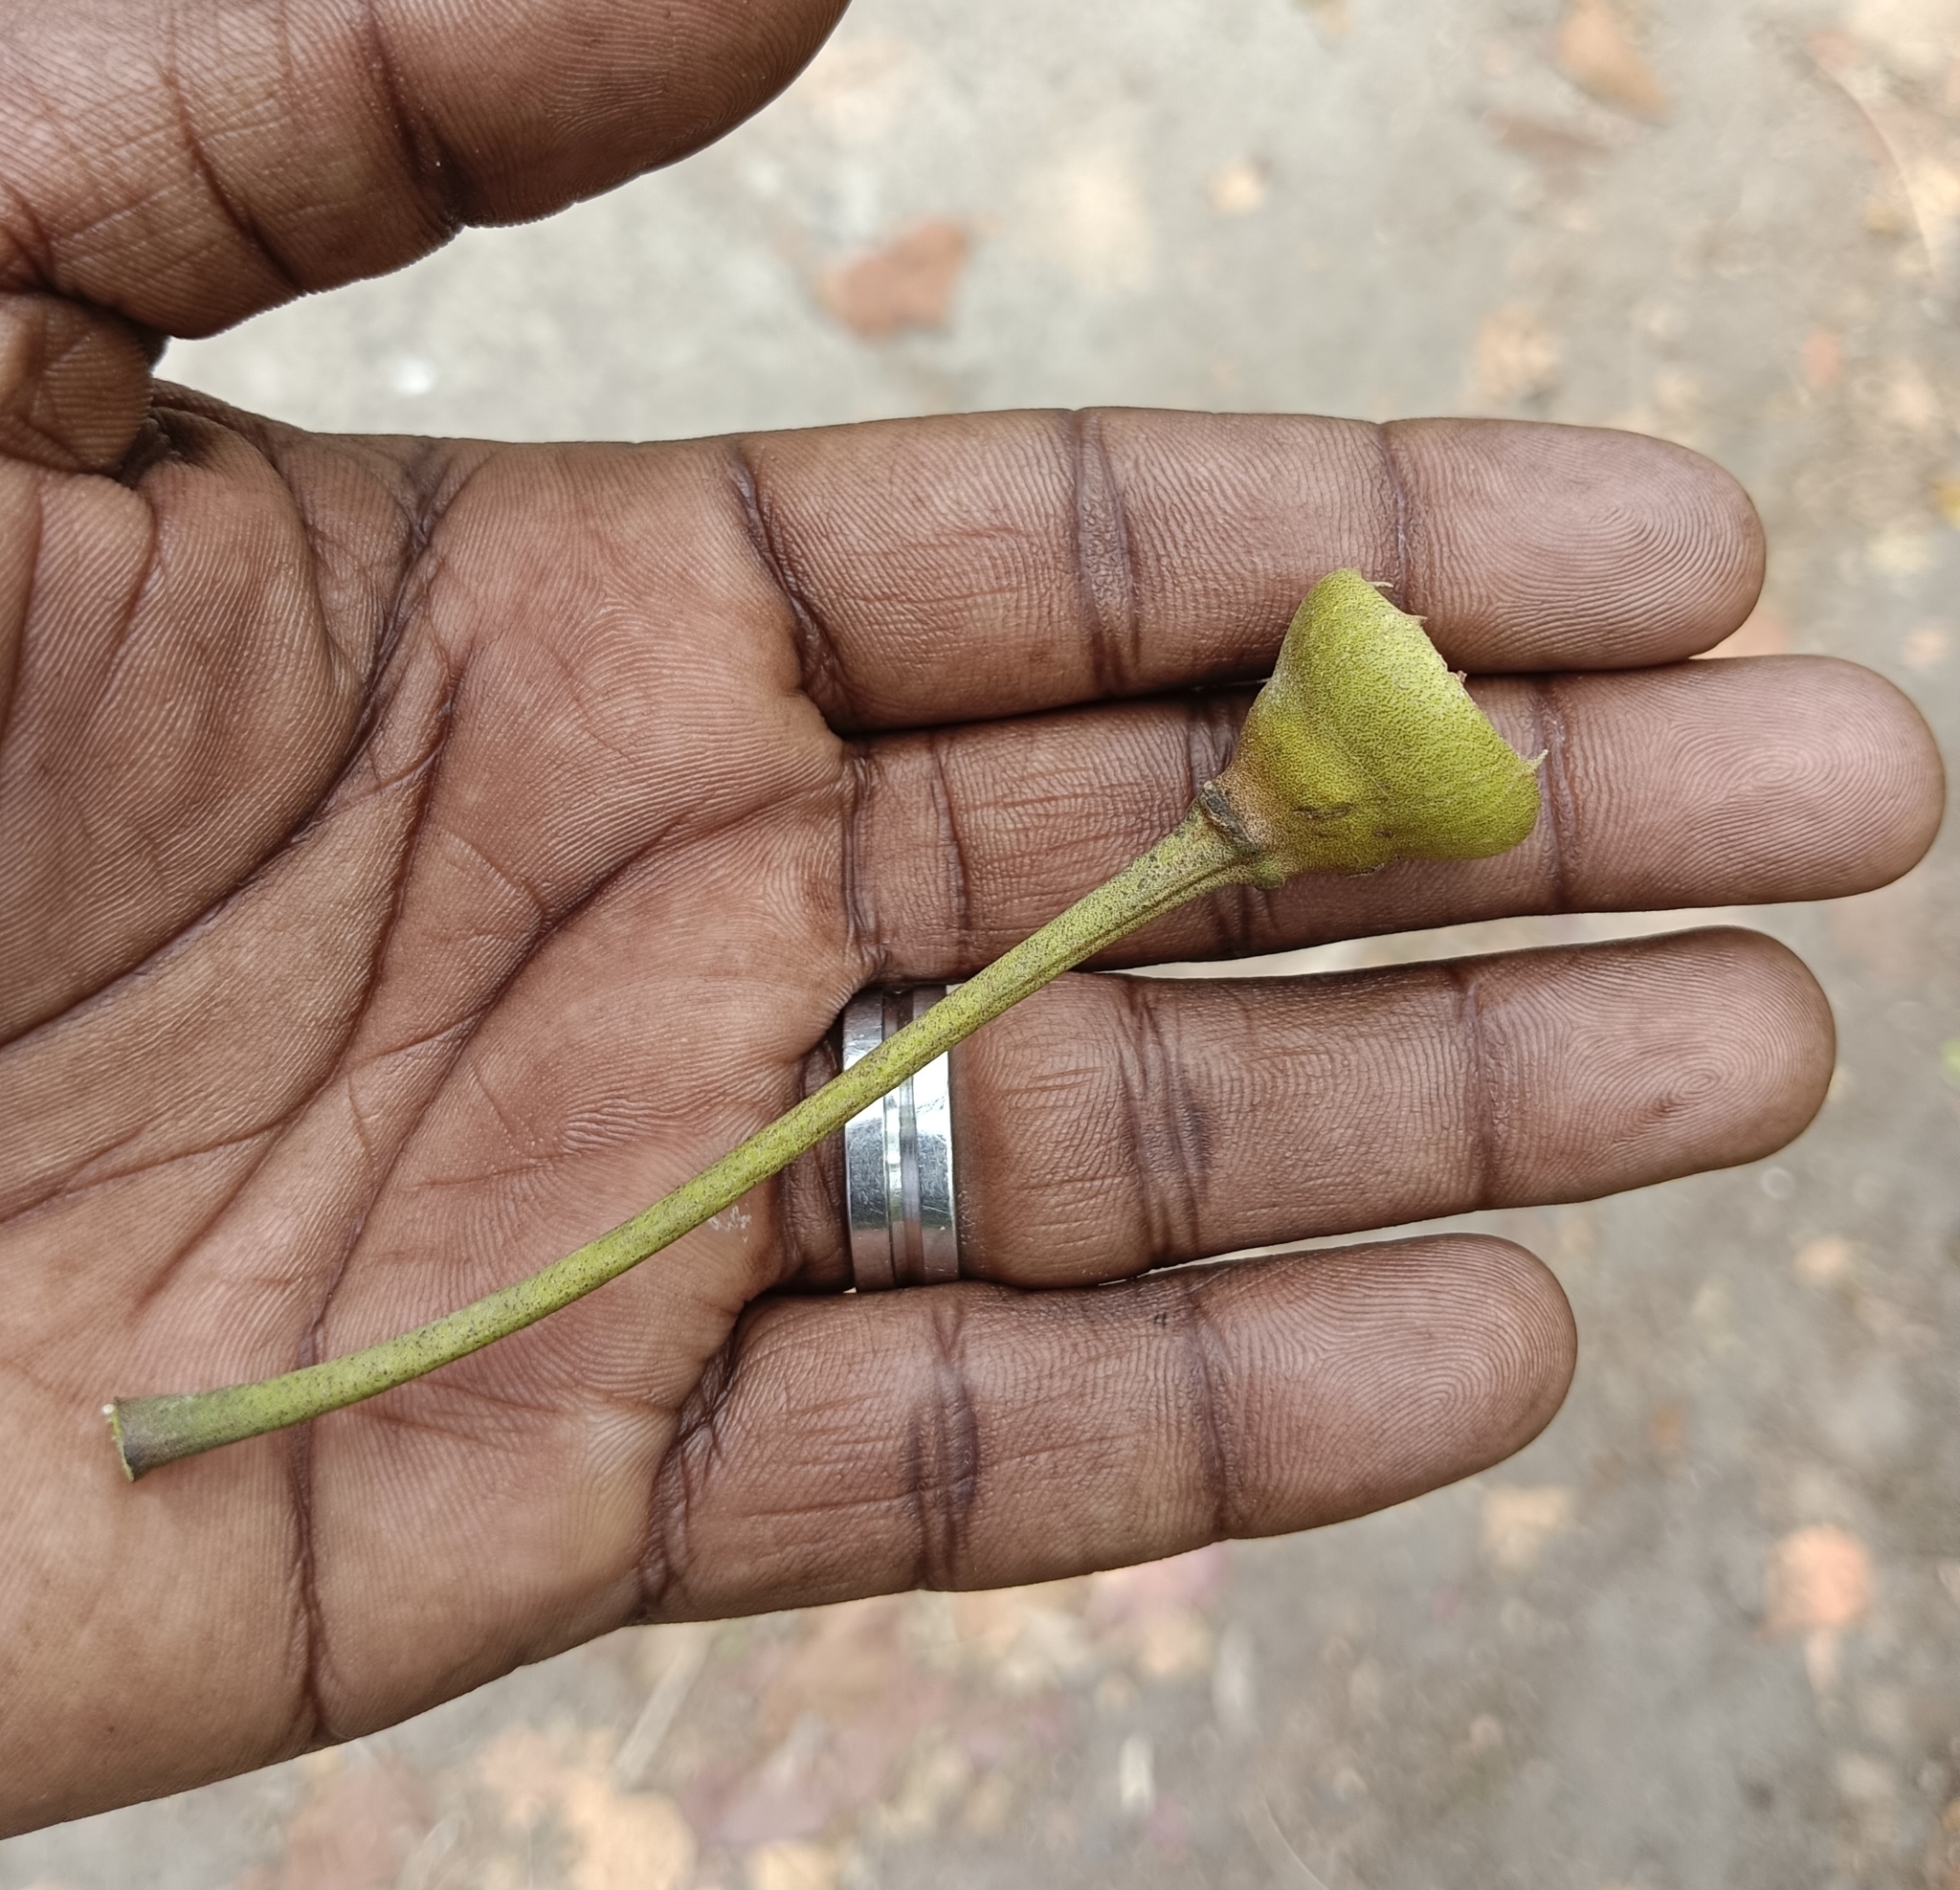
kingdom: Plantae
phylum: Tracheophyta
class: Magnoliopsida
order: Malvales
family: Malvaceae
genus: Thespesia
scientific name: Thespesia populnea
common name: Seaside mahoe
